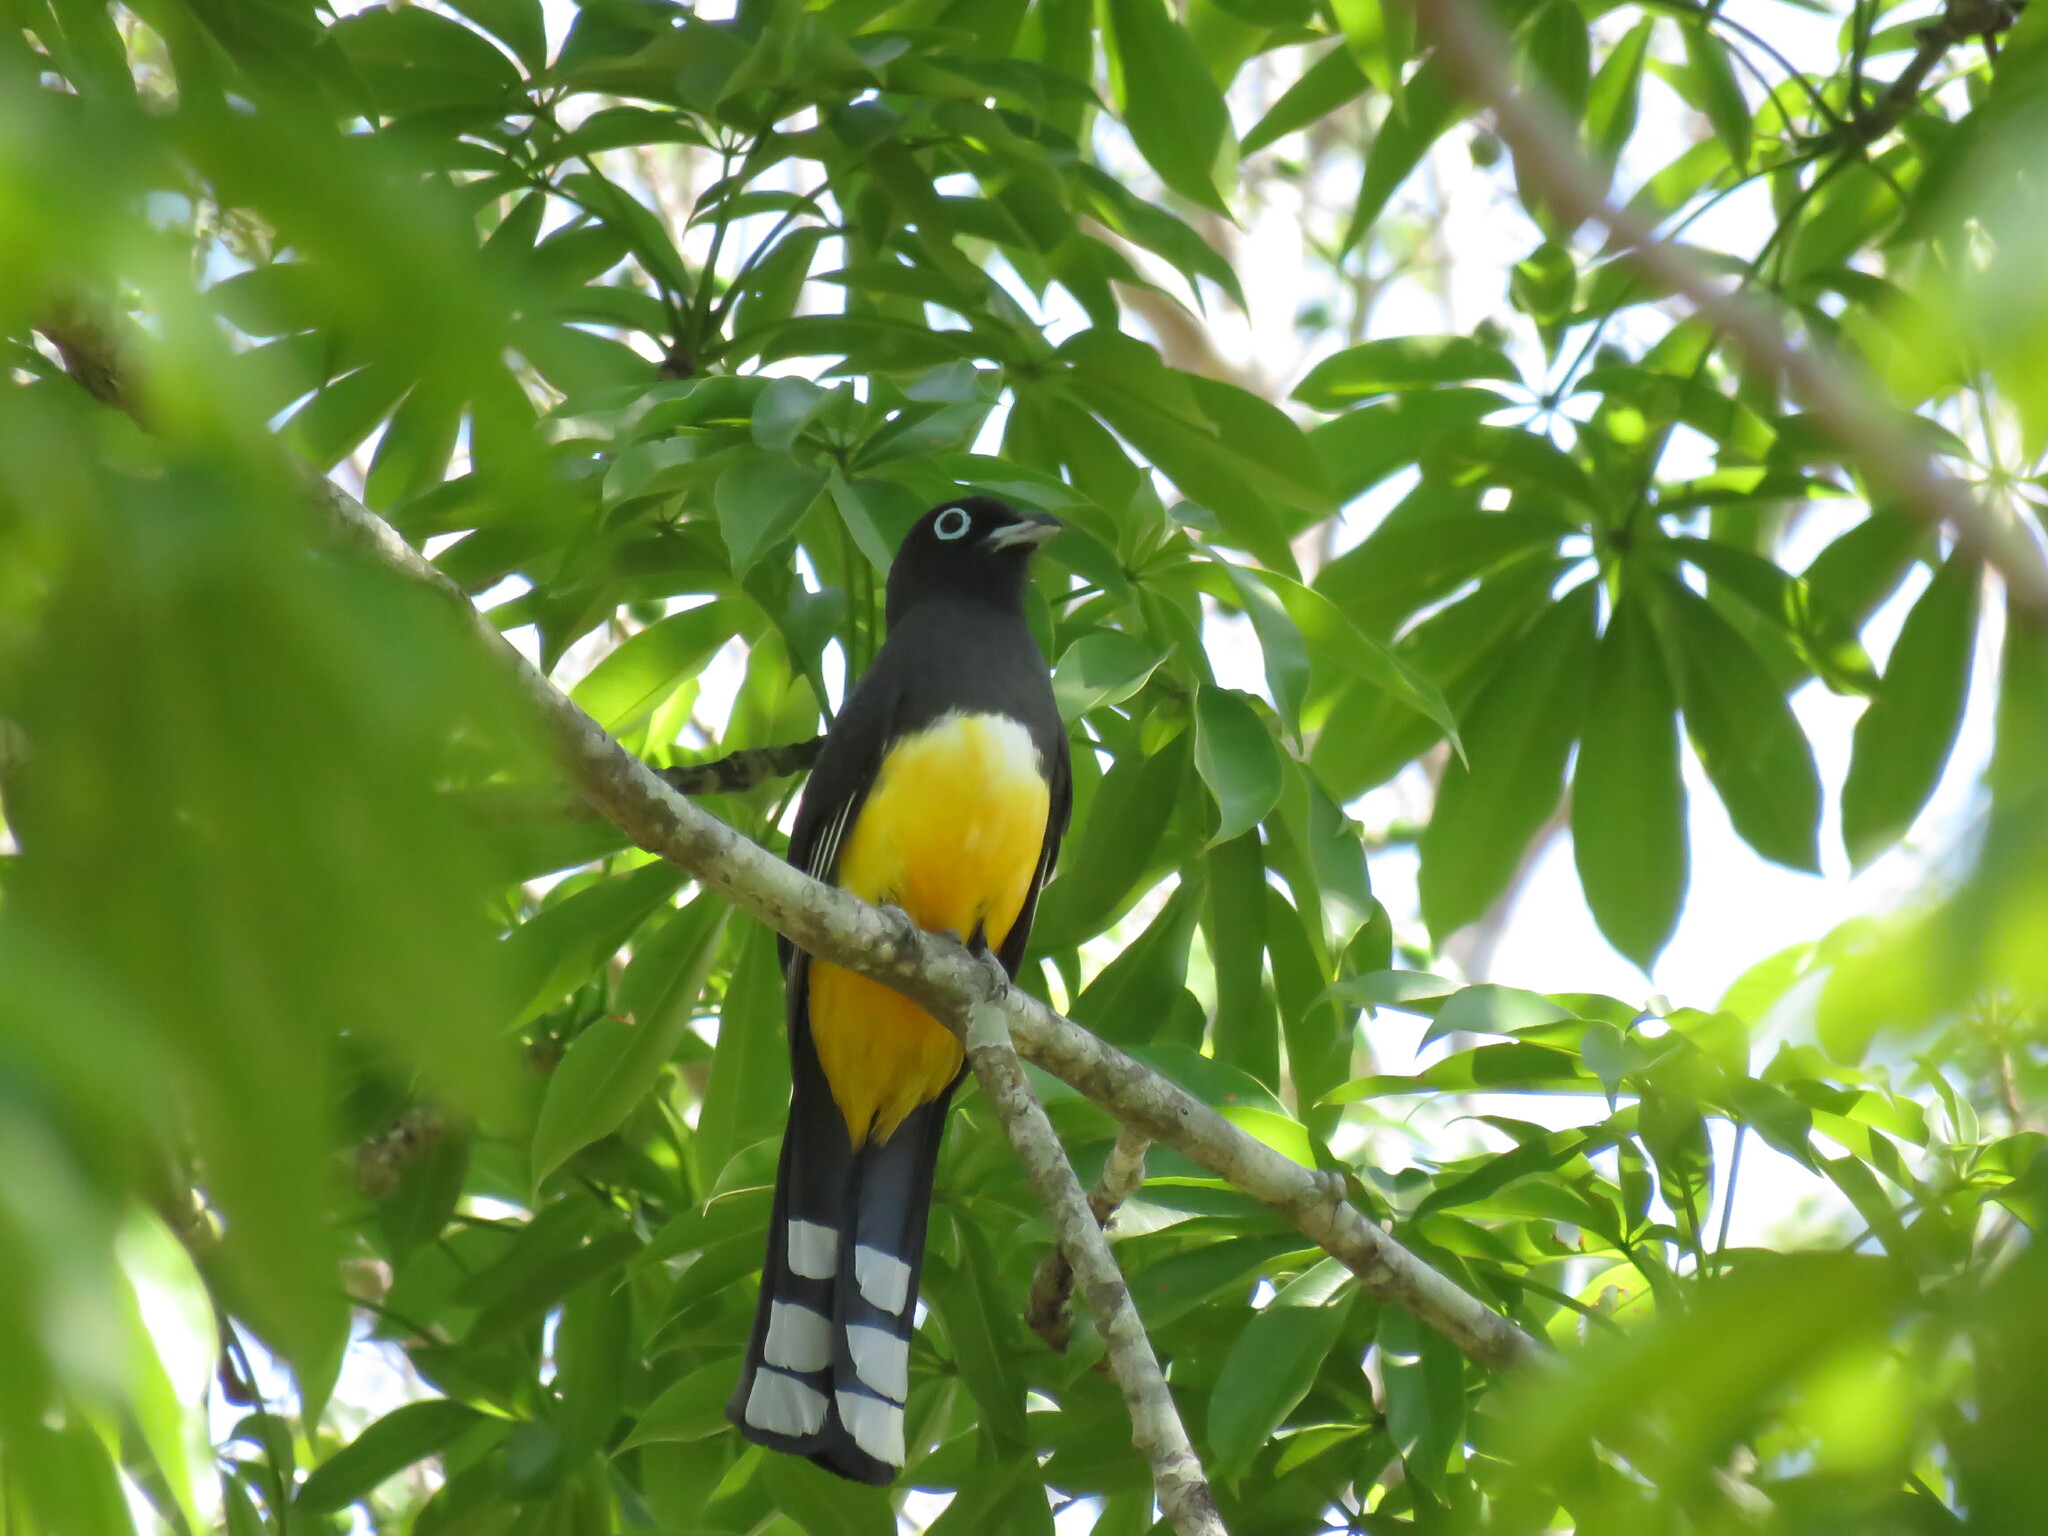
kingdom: Animalia
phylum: Chordata
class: Aves
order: Trogoniformes
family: Trogonidae
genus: Trogon
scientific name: Trogon melanocephalus
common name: Black-headed trogon
